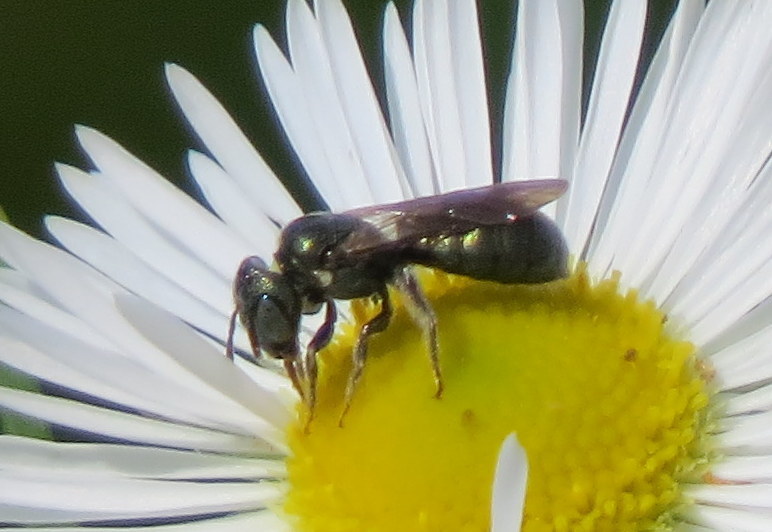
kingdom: Animalia
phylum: Arthropoda
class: Insecta
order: Hymenoptera
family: Apidae
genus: Ceratina
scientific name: Ceratina strenua
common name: Nimble carpenter bee
